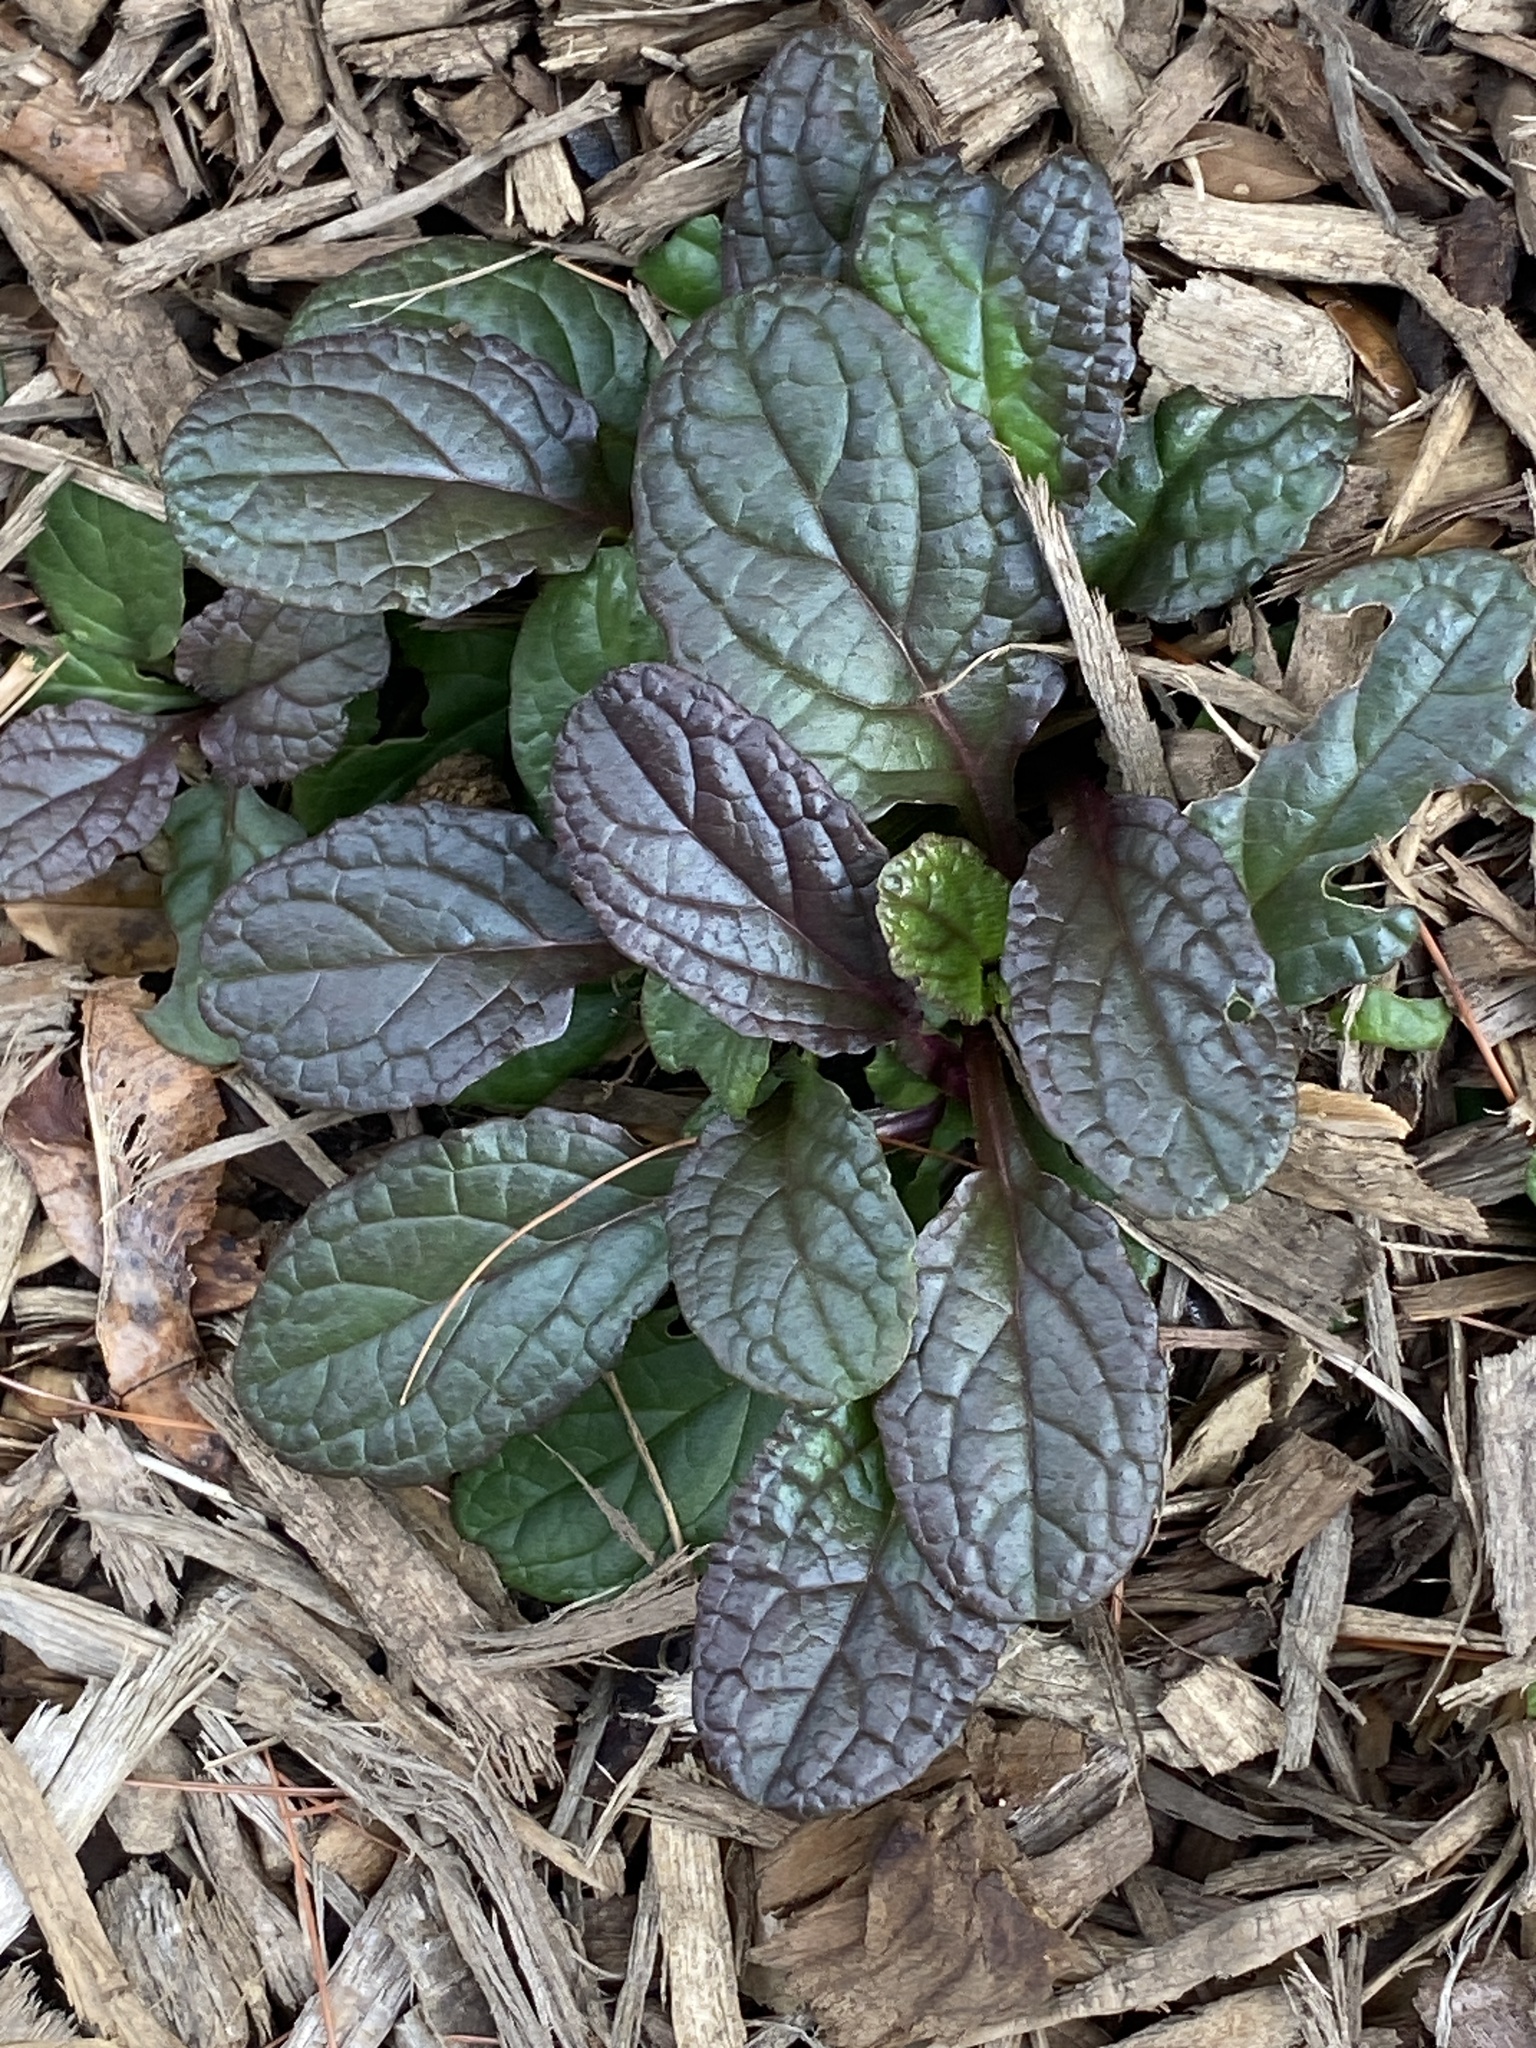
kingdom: Plantae
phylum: Tracheophyta
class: Magnoliopsida
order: Lamiales
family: Lamiaceae
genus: Ajuga
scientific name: Ajuga reptans
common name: Bugle
